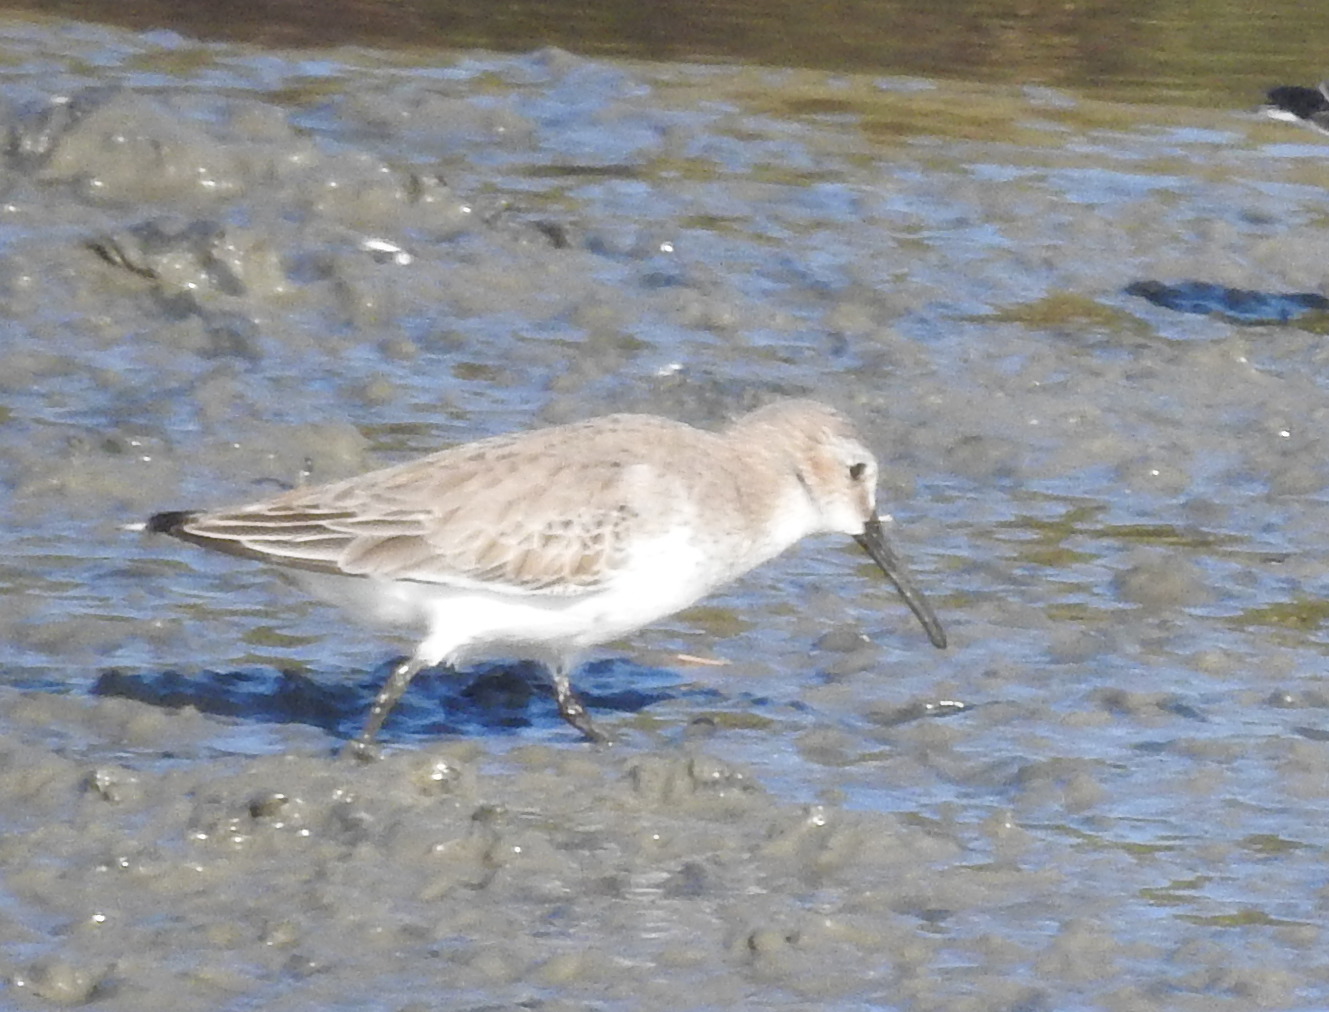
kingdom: Animalia
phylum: Chordata
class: Aves
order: Charadriiformes
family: Scolopacidae
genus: Calidris
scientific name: Calidris alpina
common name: Dunlin
